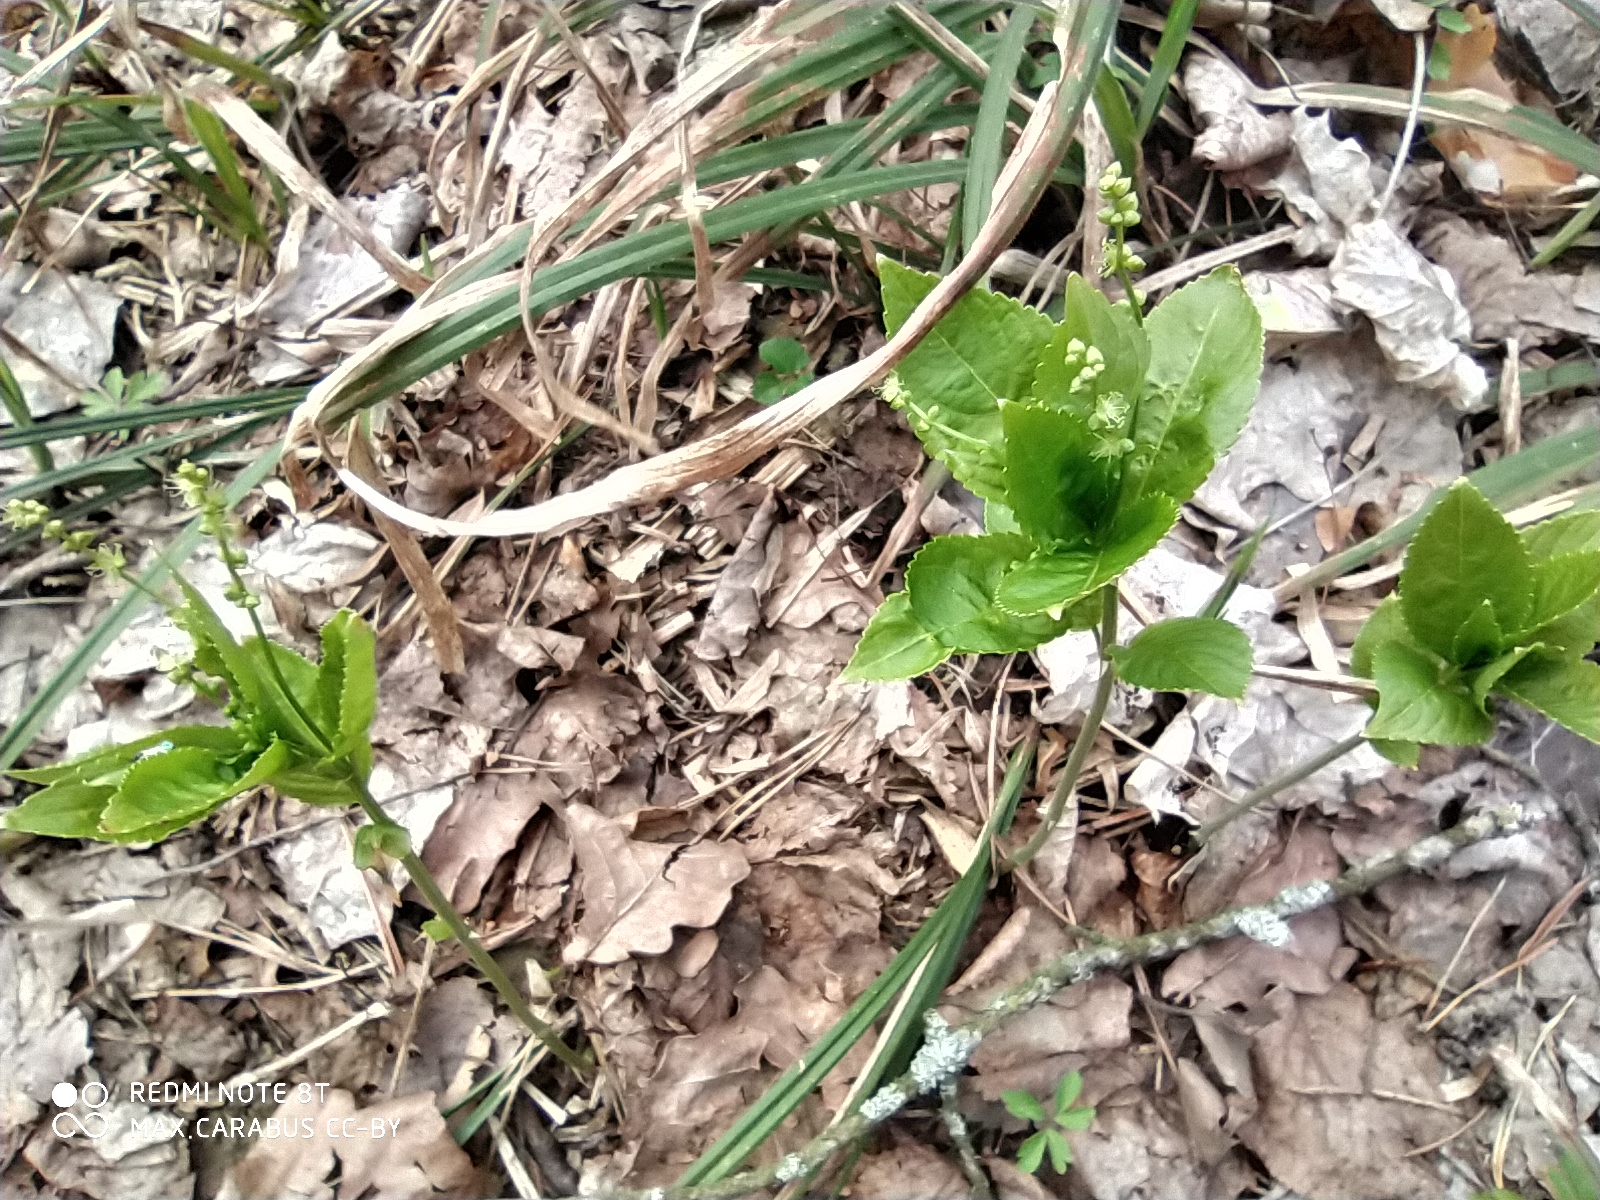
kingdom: Plantae
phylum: Tracheophyta
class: Magnoliopsida
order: Malpighiales
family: Euphorbiaceae
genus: Mercurialis
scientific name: Mercurialis perennis
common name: Dog mercury
